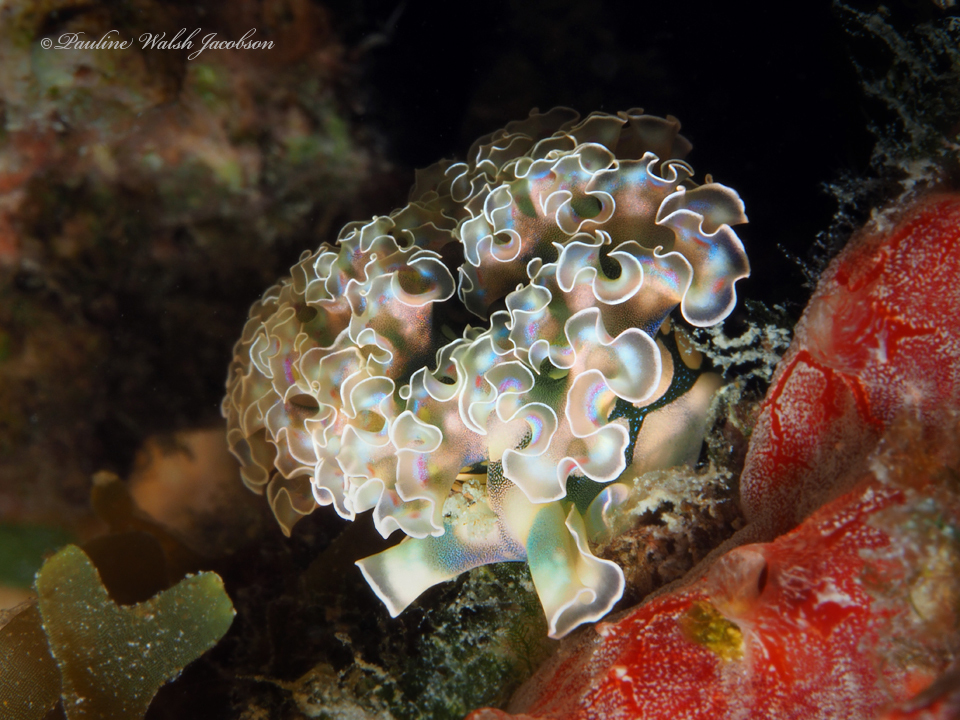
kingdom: Animalia
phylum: Mollusca
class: Gastropoda
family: Plakobranchidae
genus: Elysia
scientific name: Elysia crispata
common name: Lettuce slug
